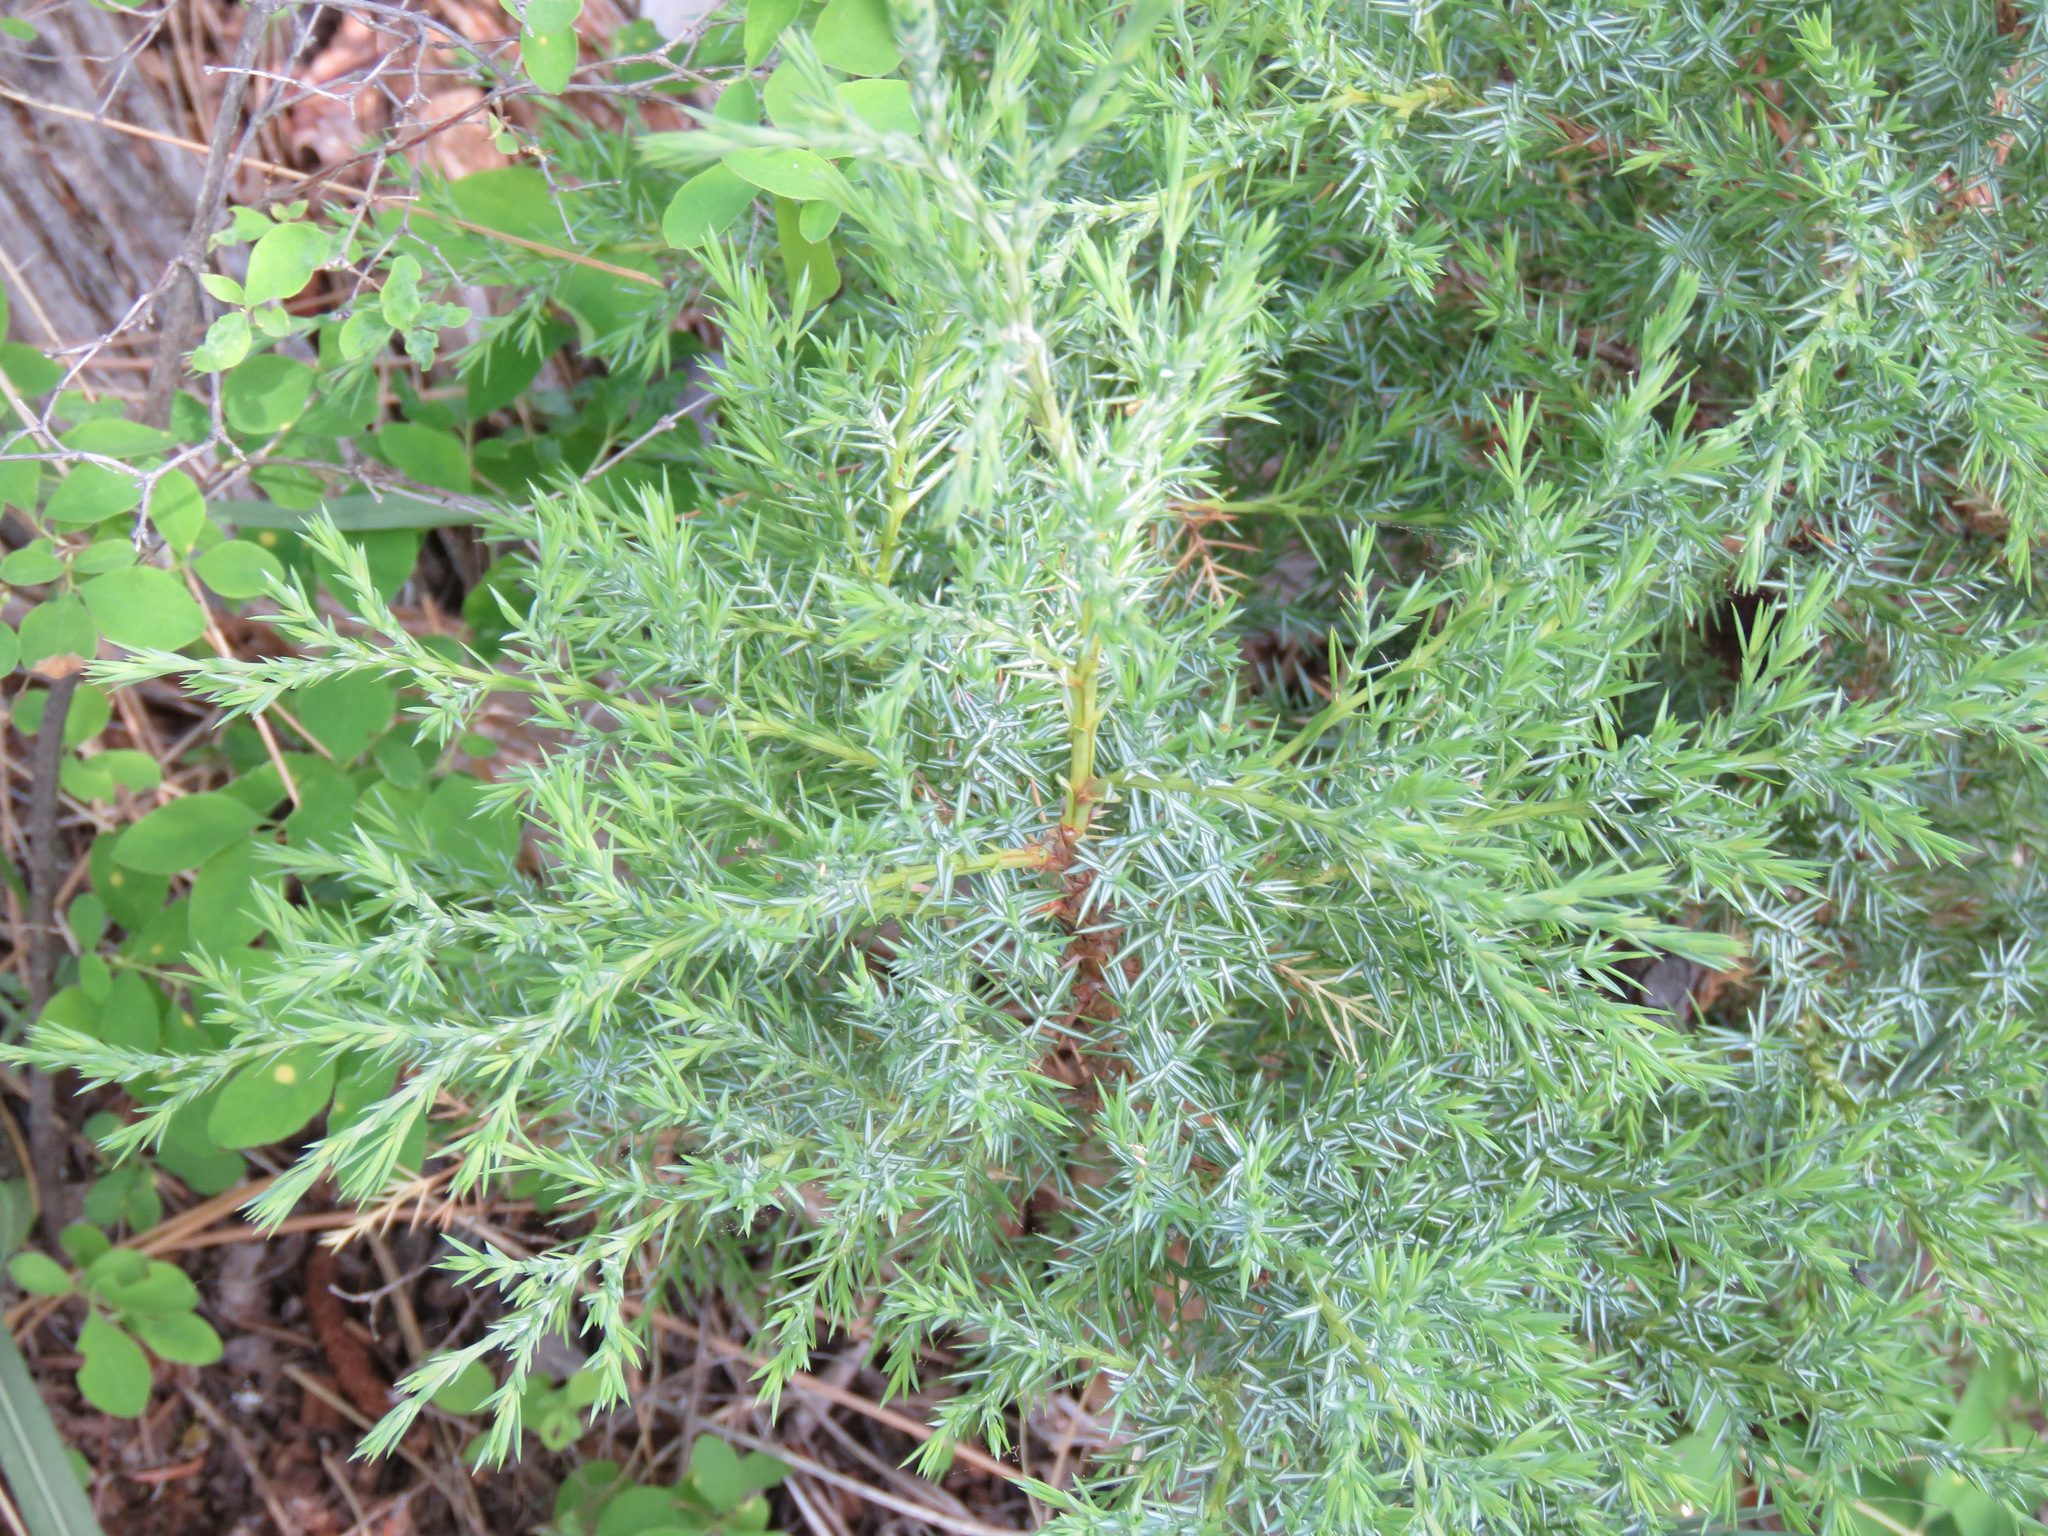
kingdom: Plantae
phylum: Tracheophyta
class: Pinopsida
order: Pinales
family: Cupressaceae
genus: Juniperus
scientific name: Juniperus communis
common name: Common juniper
